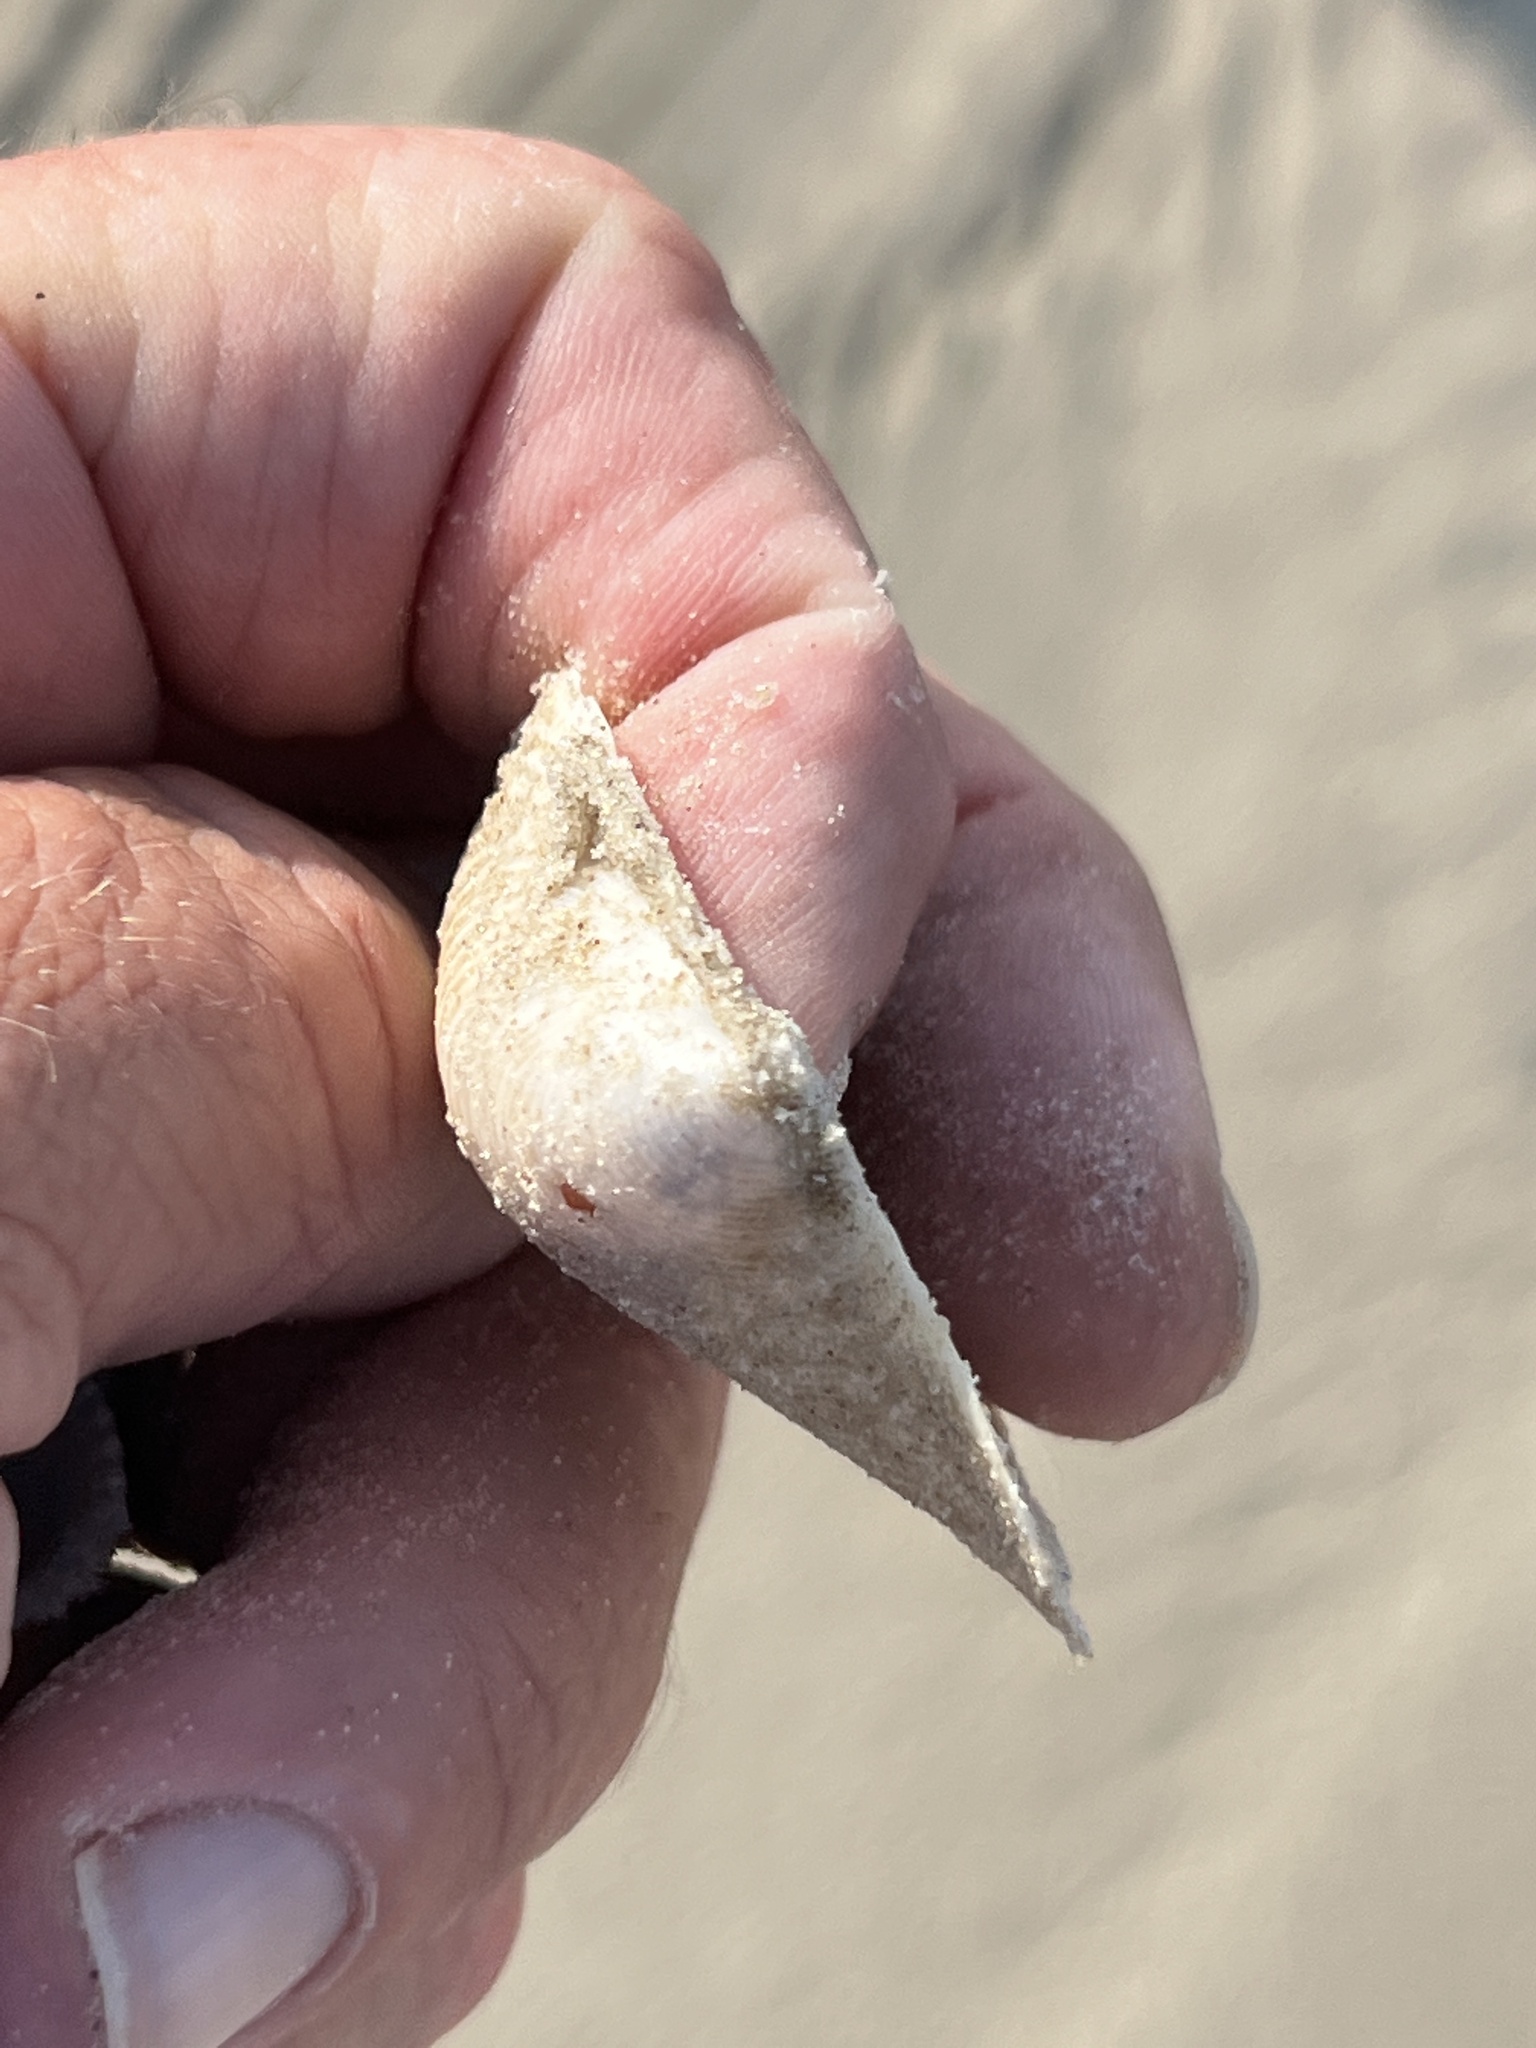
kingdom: Animalia
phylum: Mollusca
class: Bivalvia
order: Venerida
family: Anatinellidae
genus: Raeta
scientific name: Raeta plicatella
